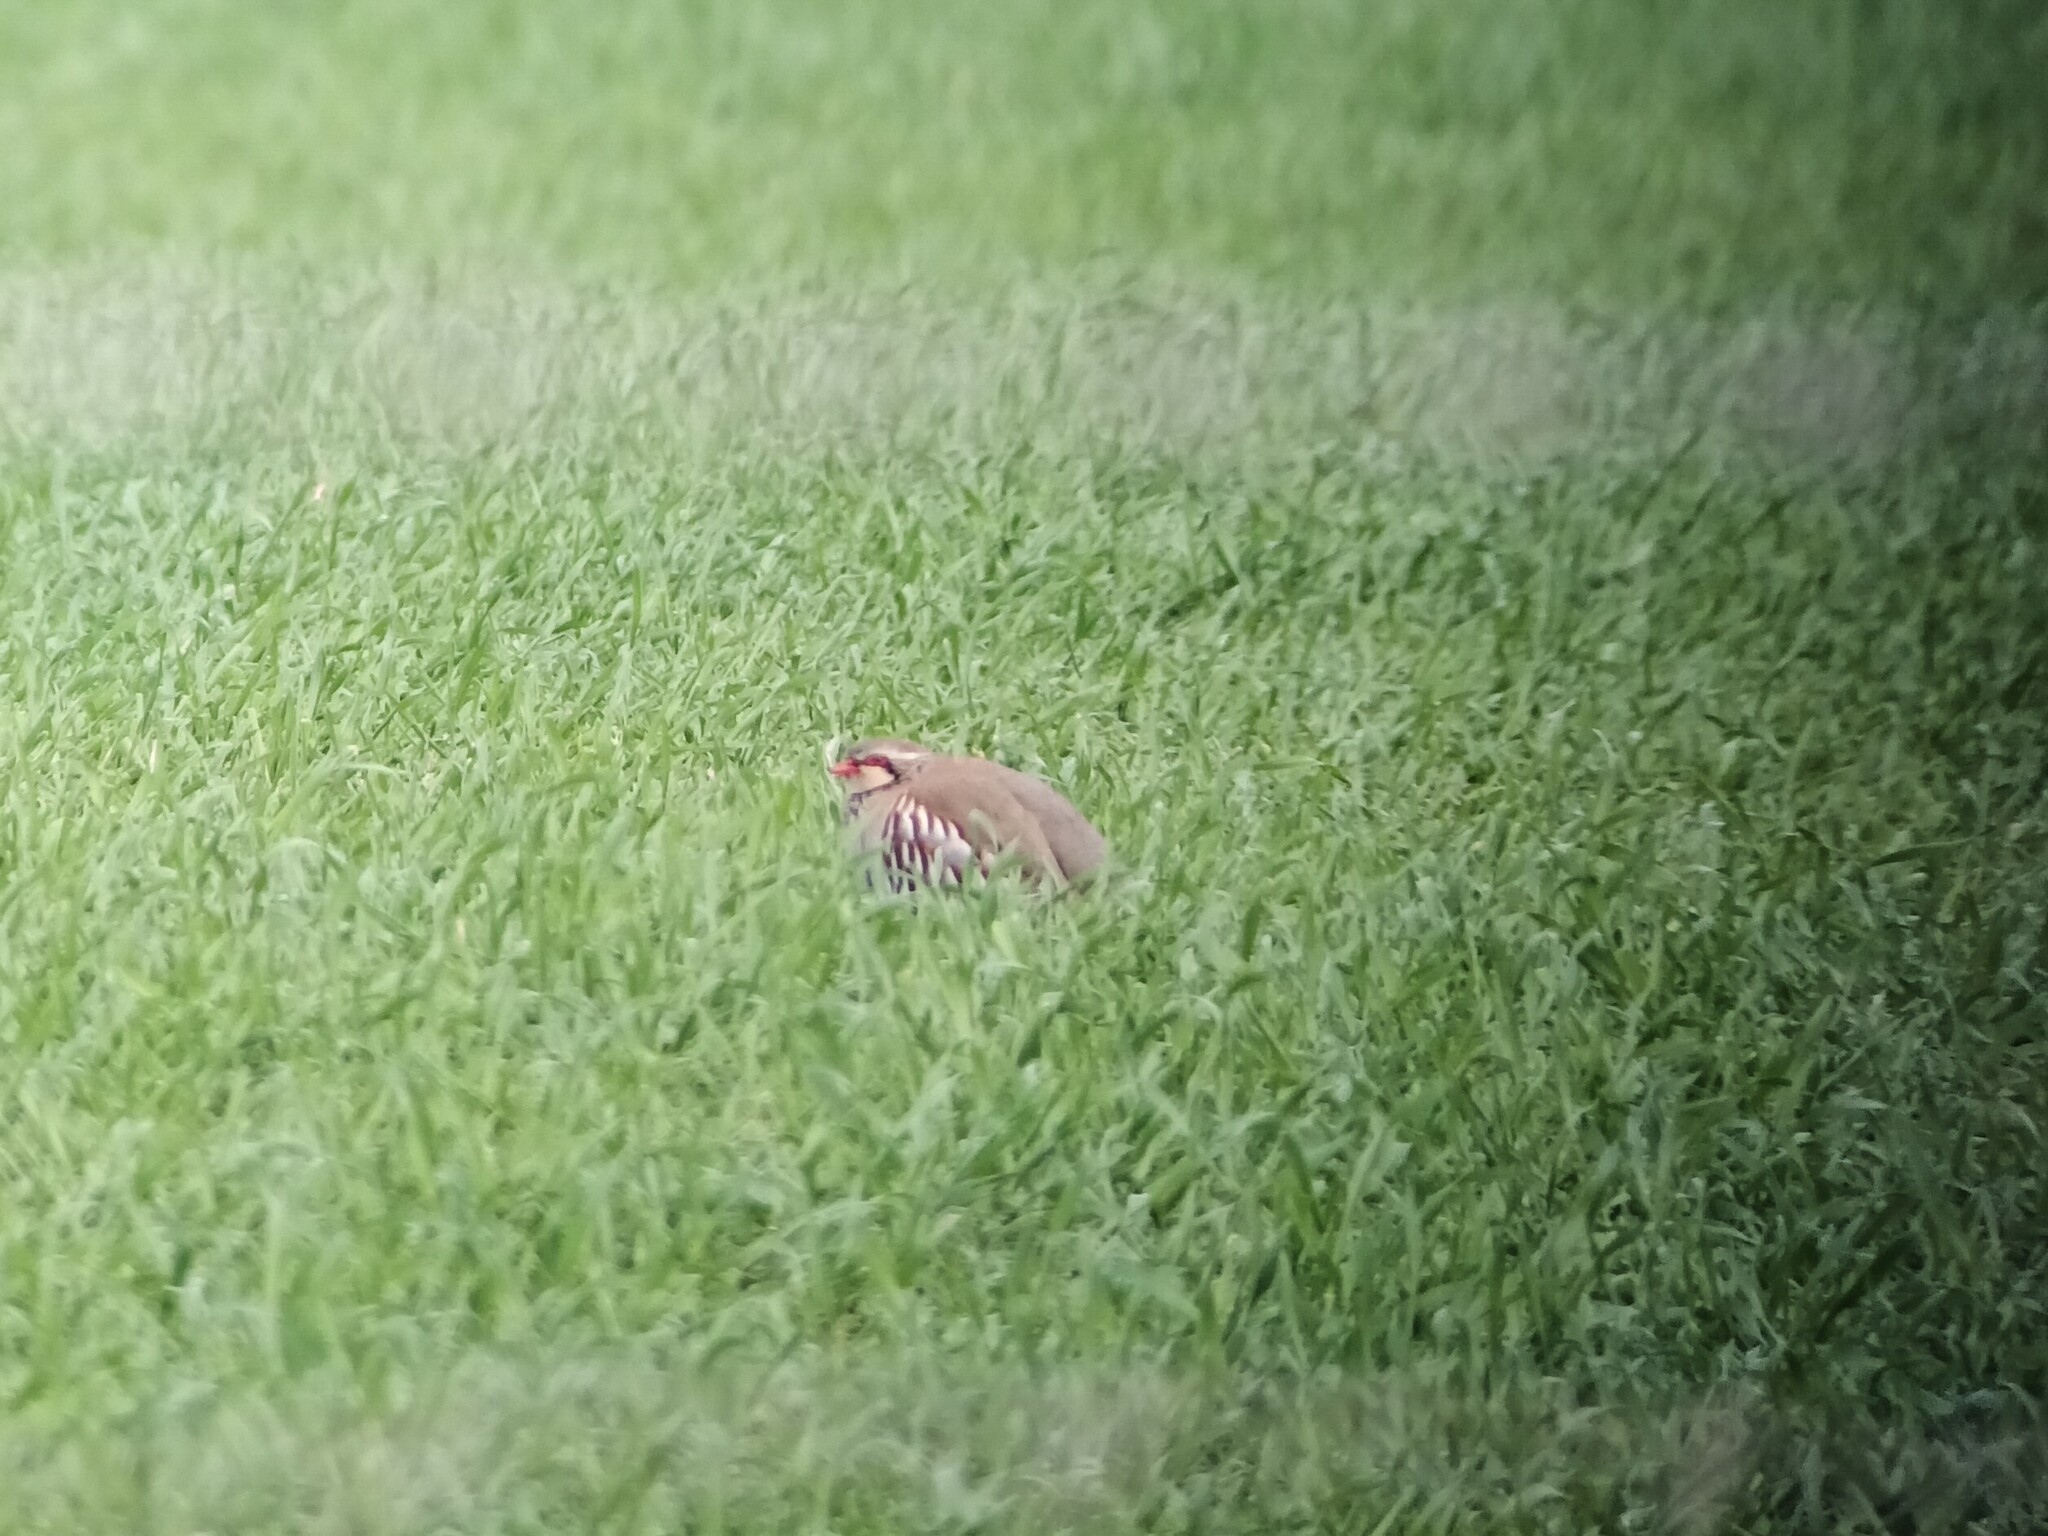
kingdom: Animalia
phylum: Chordata
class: Aves
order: Galliformes
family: Phasianidae
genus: Alectoris
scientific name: Alectoris rufa
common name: Red-legged partridge
